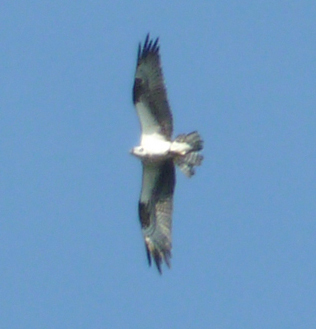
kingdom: Animalia
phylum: Chordata
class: Aves
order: Accipitriformes
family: Pandionidae
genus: Pandion
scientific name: Pandion haliaetus
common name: Osprey
